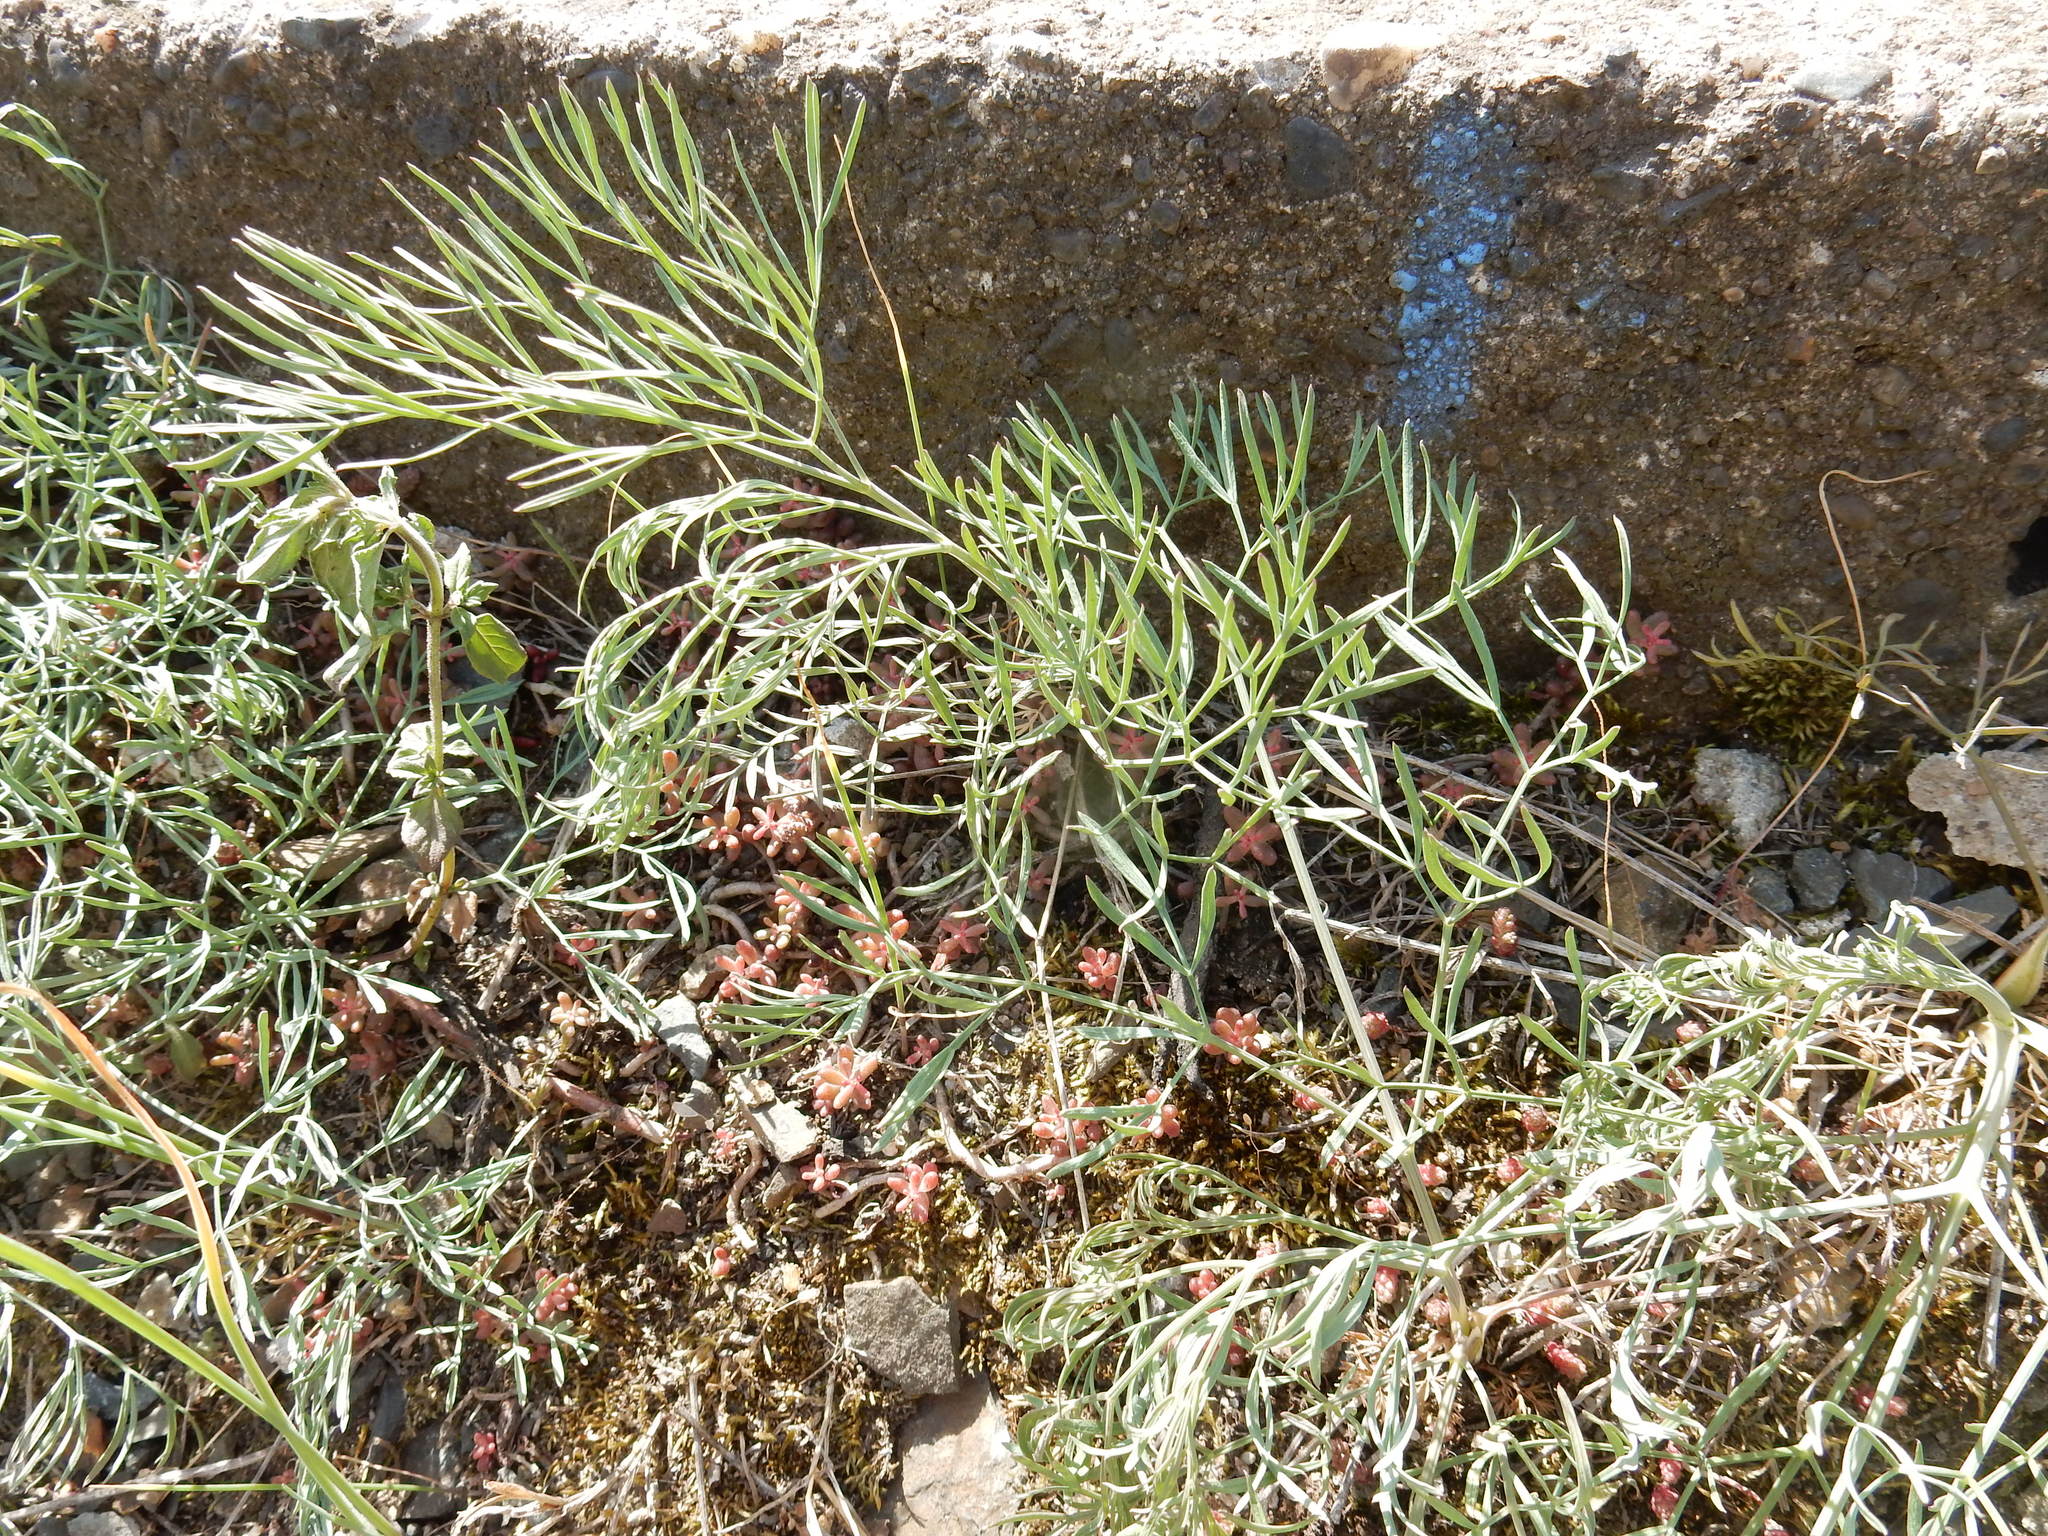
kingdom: Plantae
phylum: Tracheophyta
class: Magnoliopsida
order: Apiales
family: Apiaceae
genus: Seseli
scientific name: Seseli osseum
